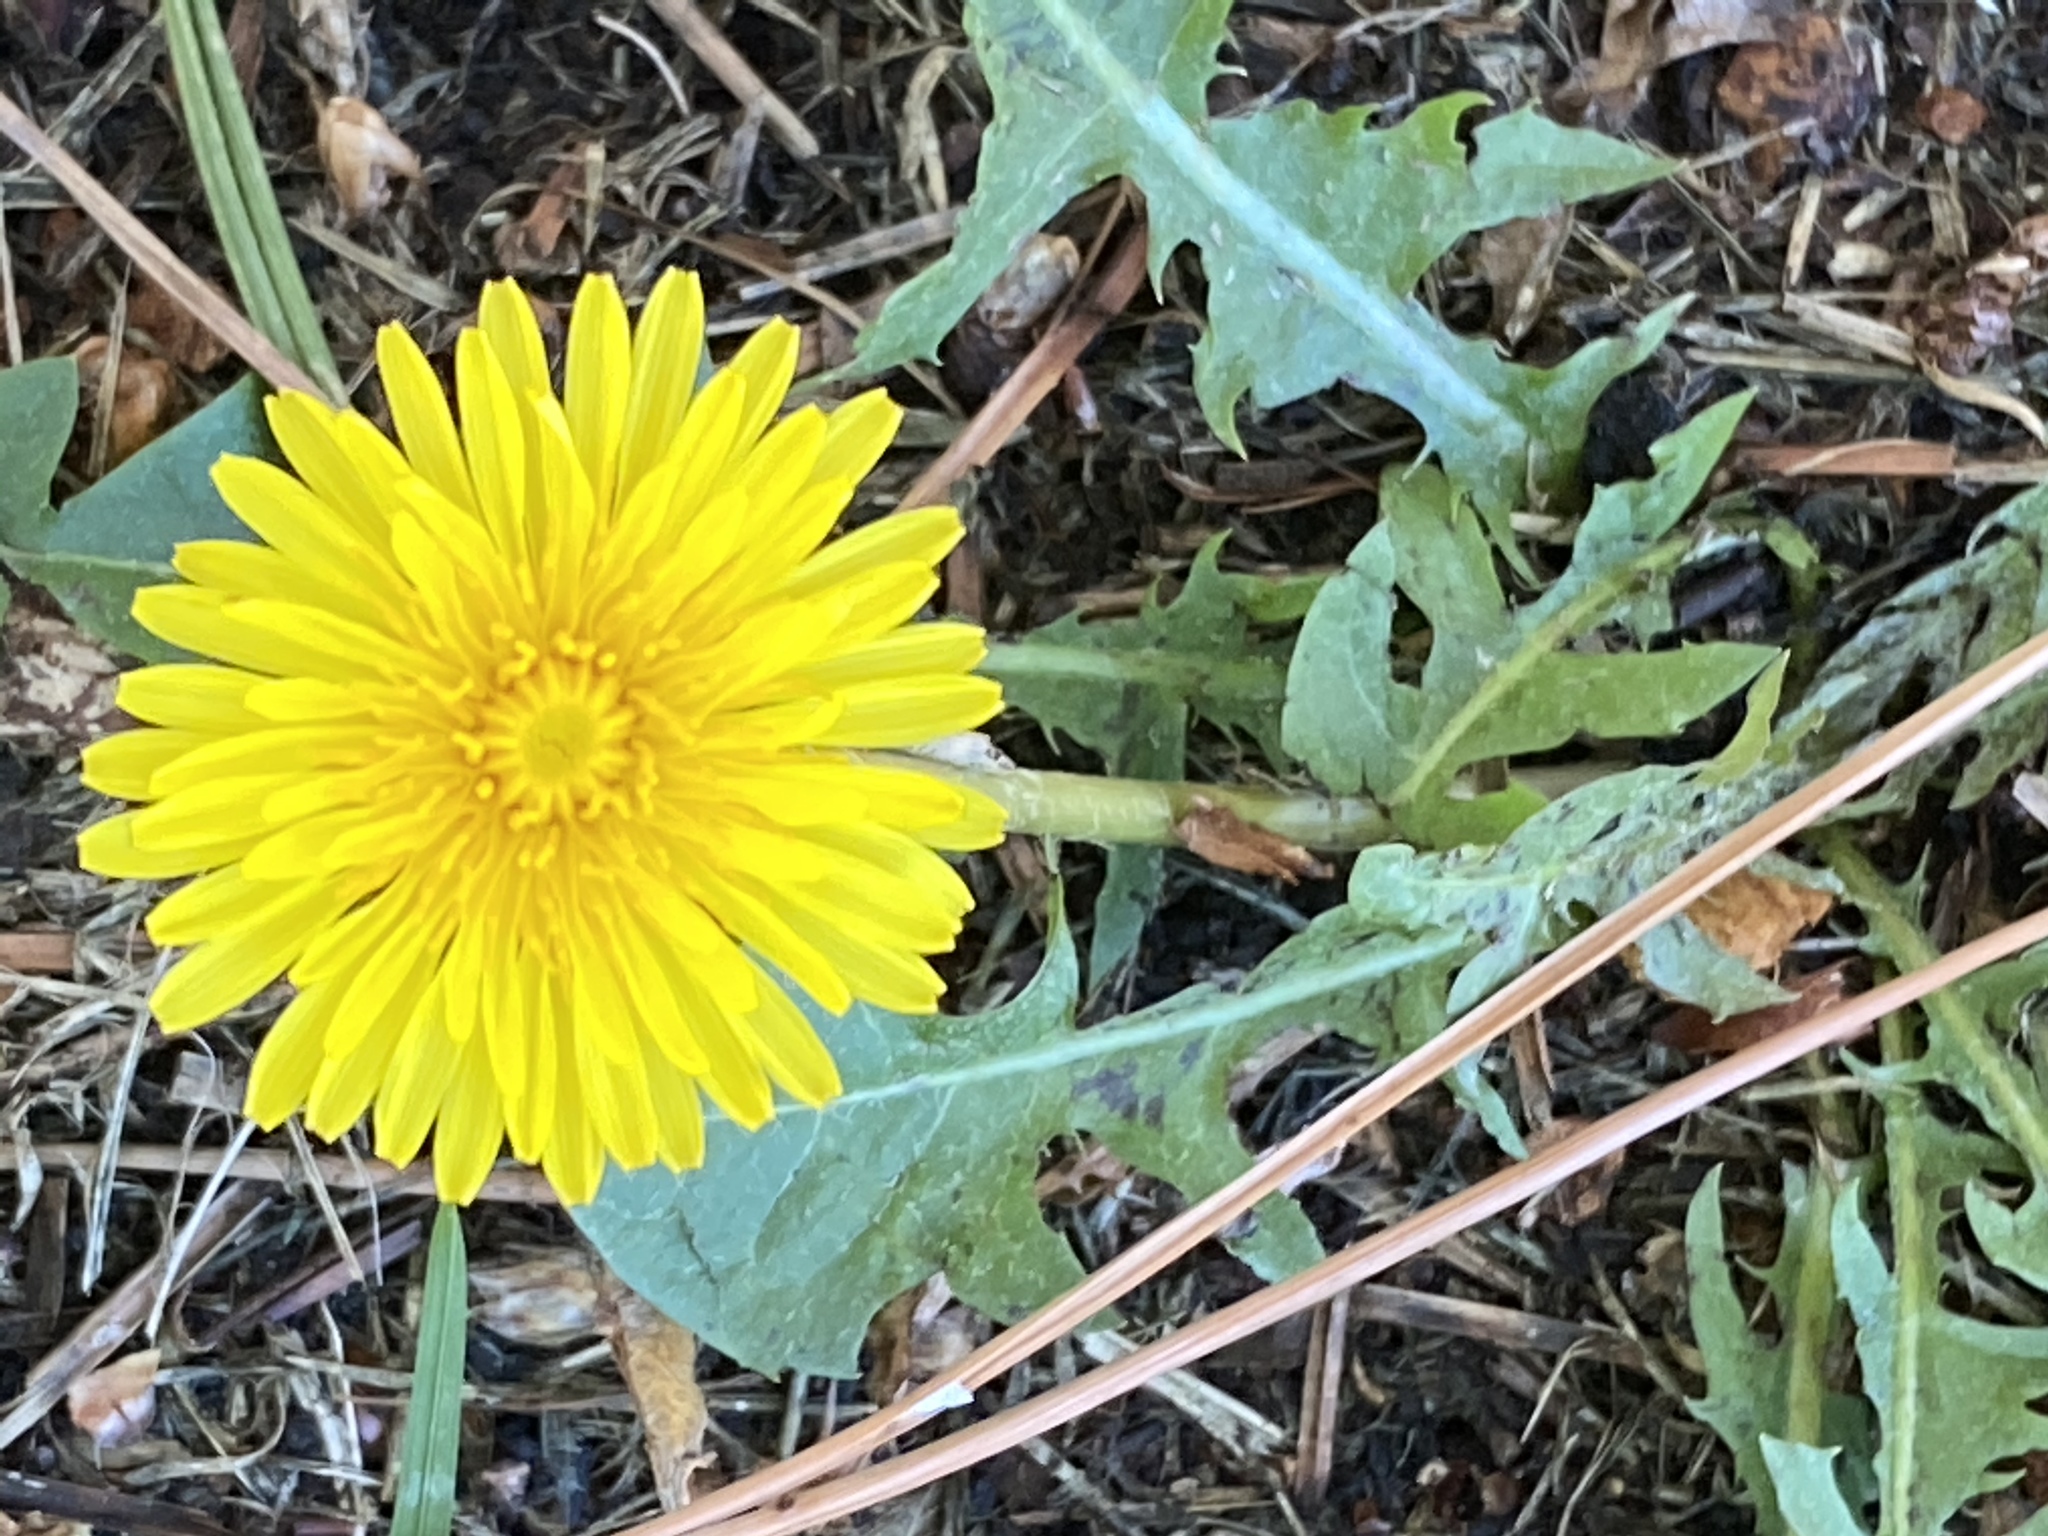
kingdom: Plantae
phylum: Tracheophyta
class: Magnoliopsida
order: Asterales
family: Asteraceae
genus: Taraxacum
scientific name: Taraxacum officinale
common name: Common dandelion
